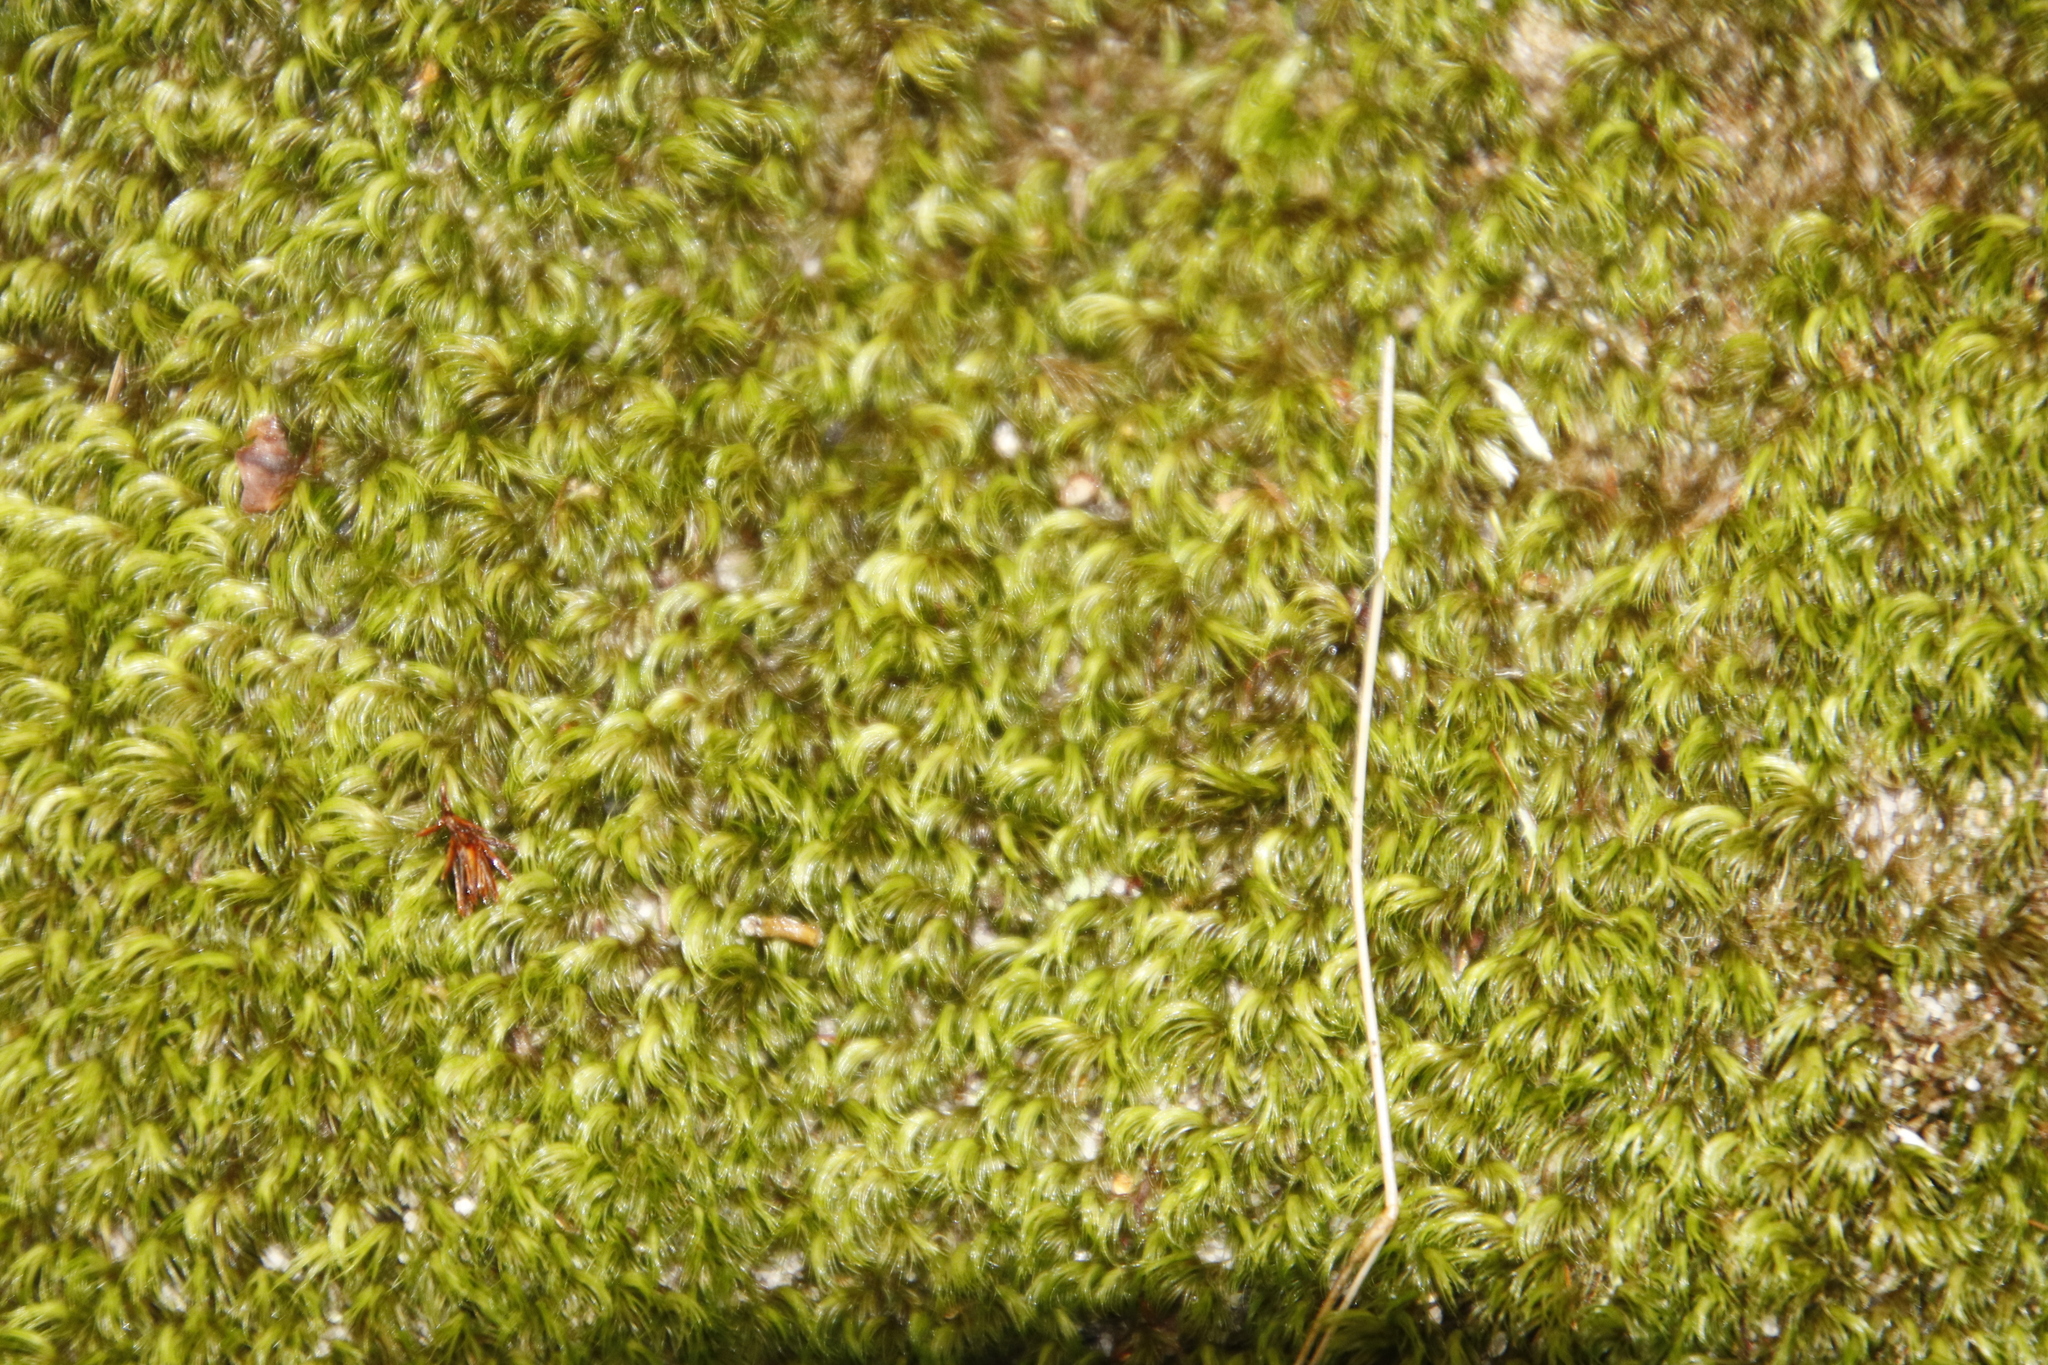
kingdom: Plantae
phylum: Bryophyta
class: Bryopsida
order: Dicranales
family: Dicranaceae
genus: Leucoloma
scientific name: Leucoloma sprengelianum
